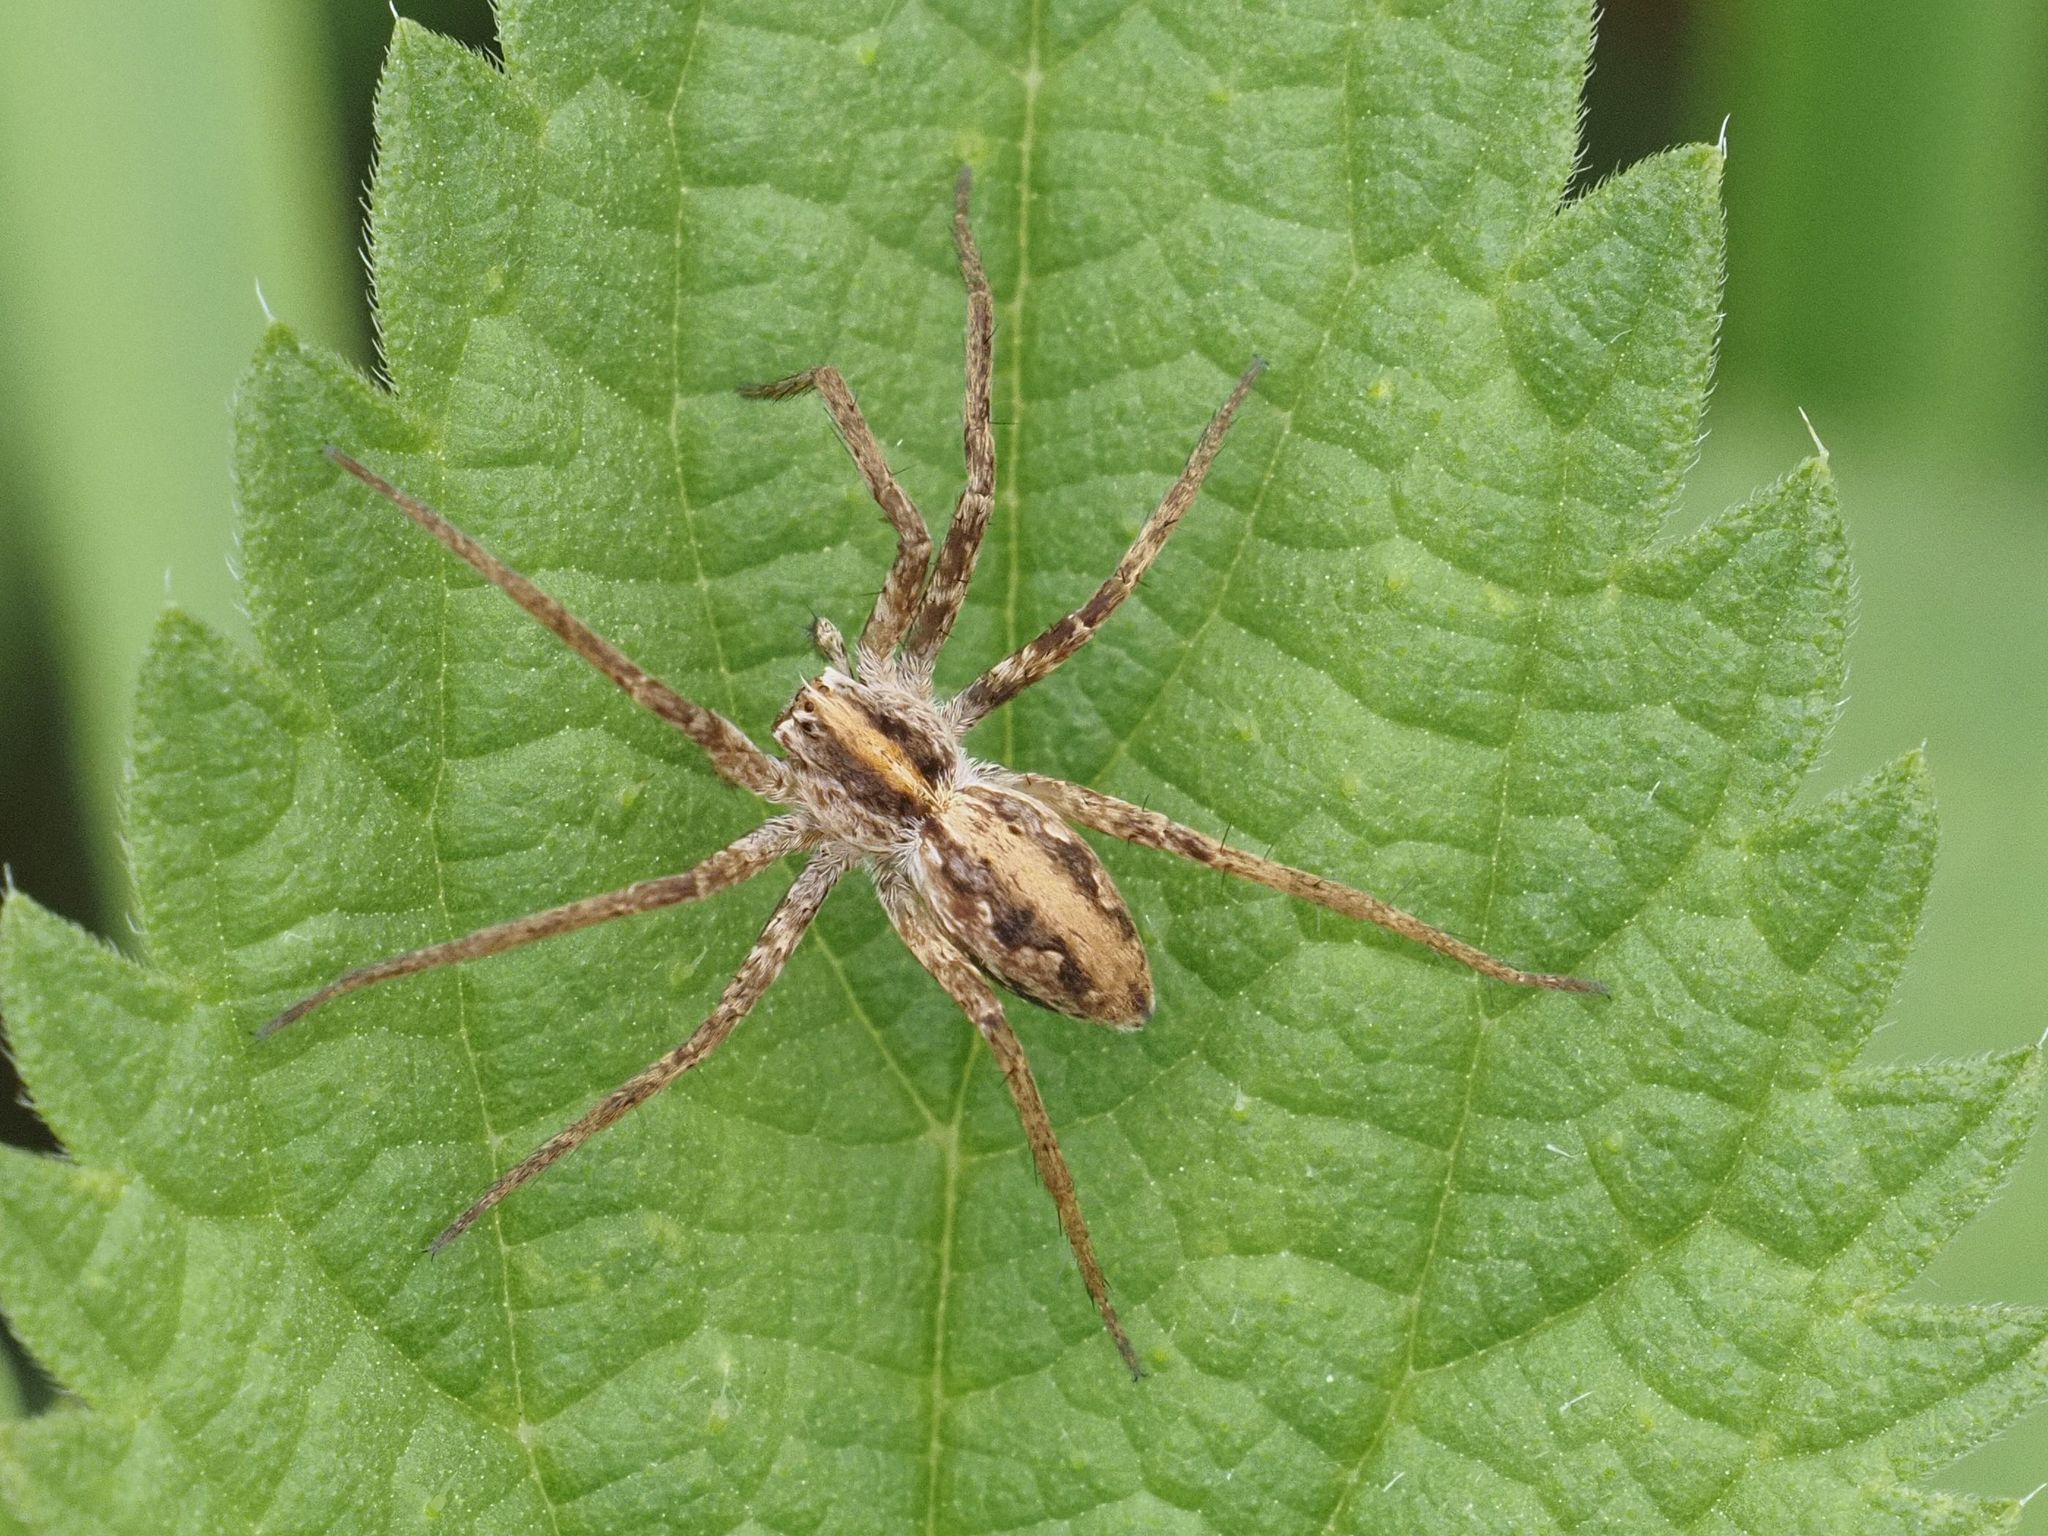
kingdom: Animalia
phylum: Arthropoda
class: Arachnida
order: Araneae
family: Pisauridae
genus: Pisaura
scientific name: Pisaura mirabilis
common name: Tent spider
